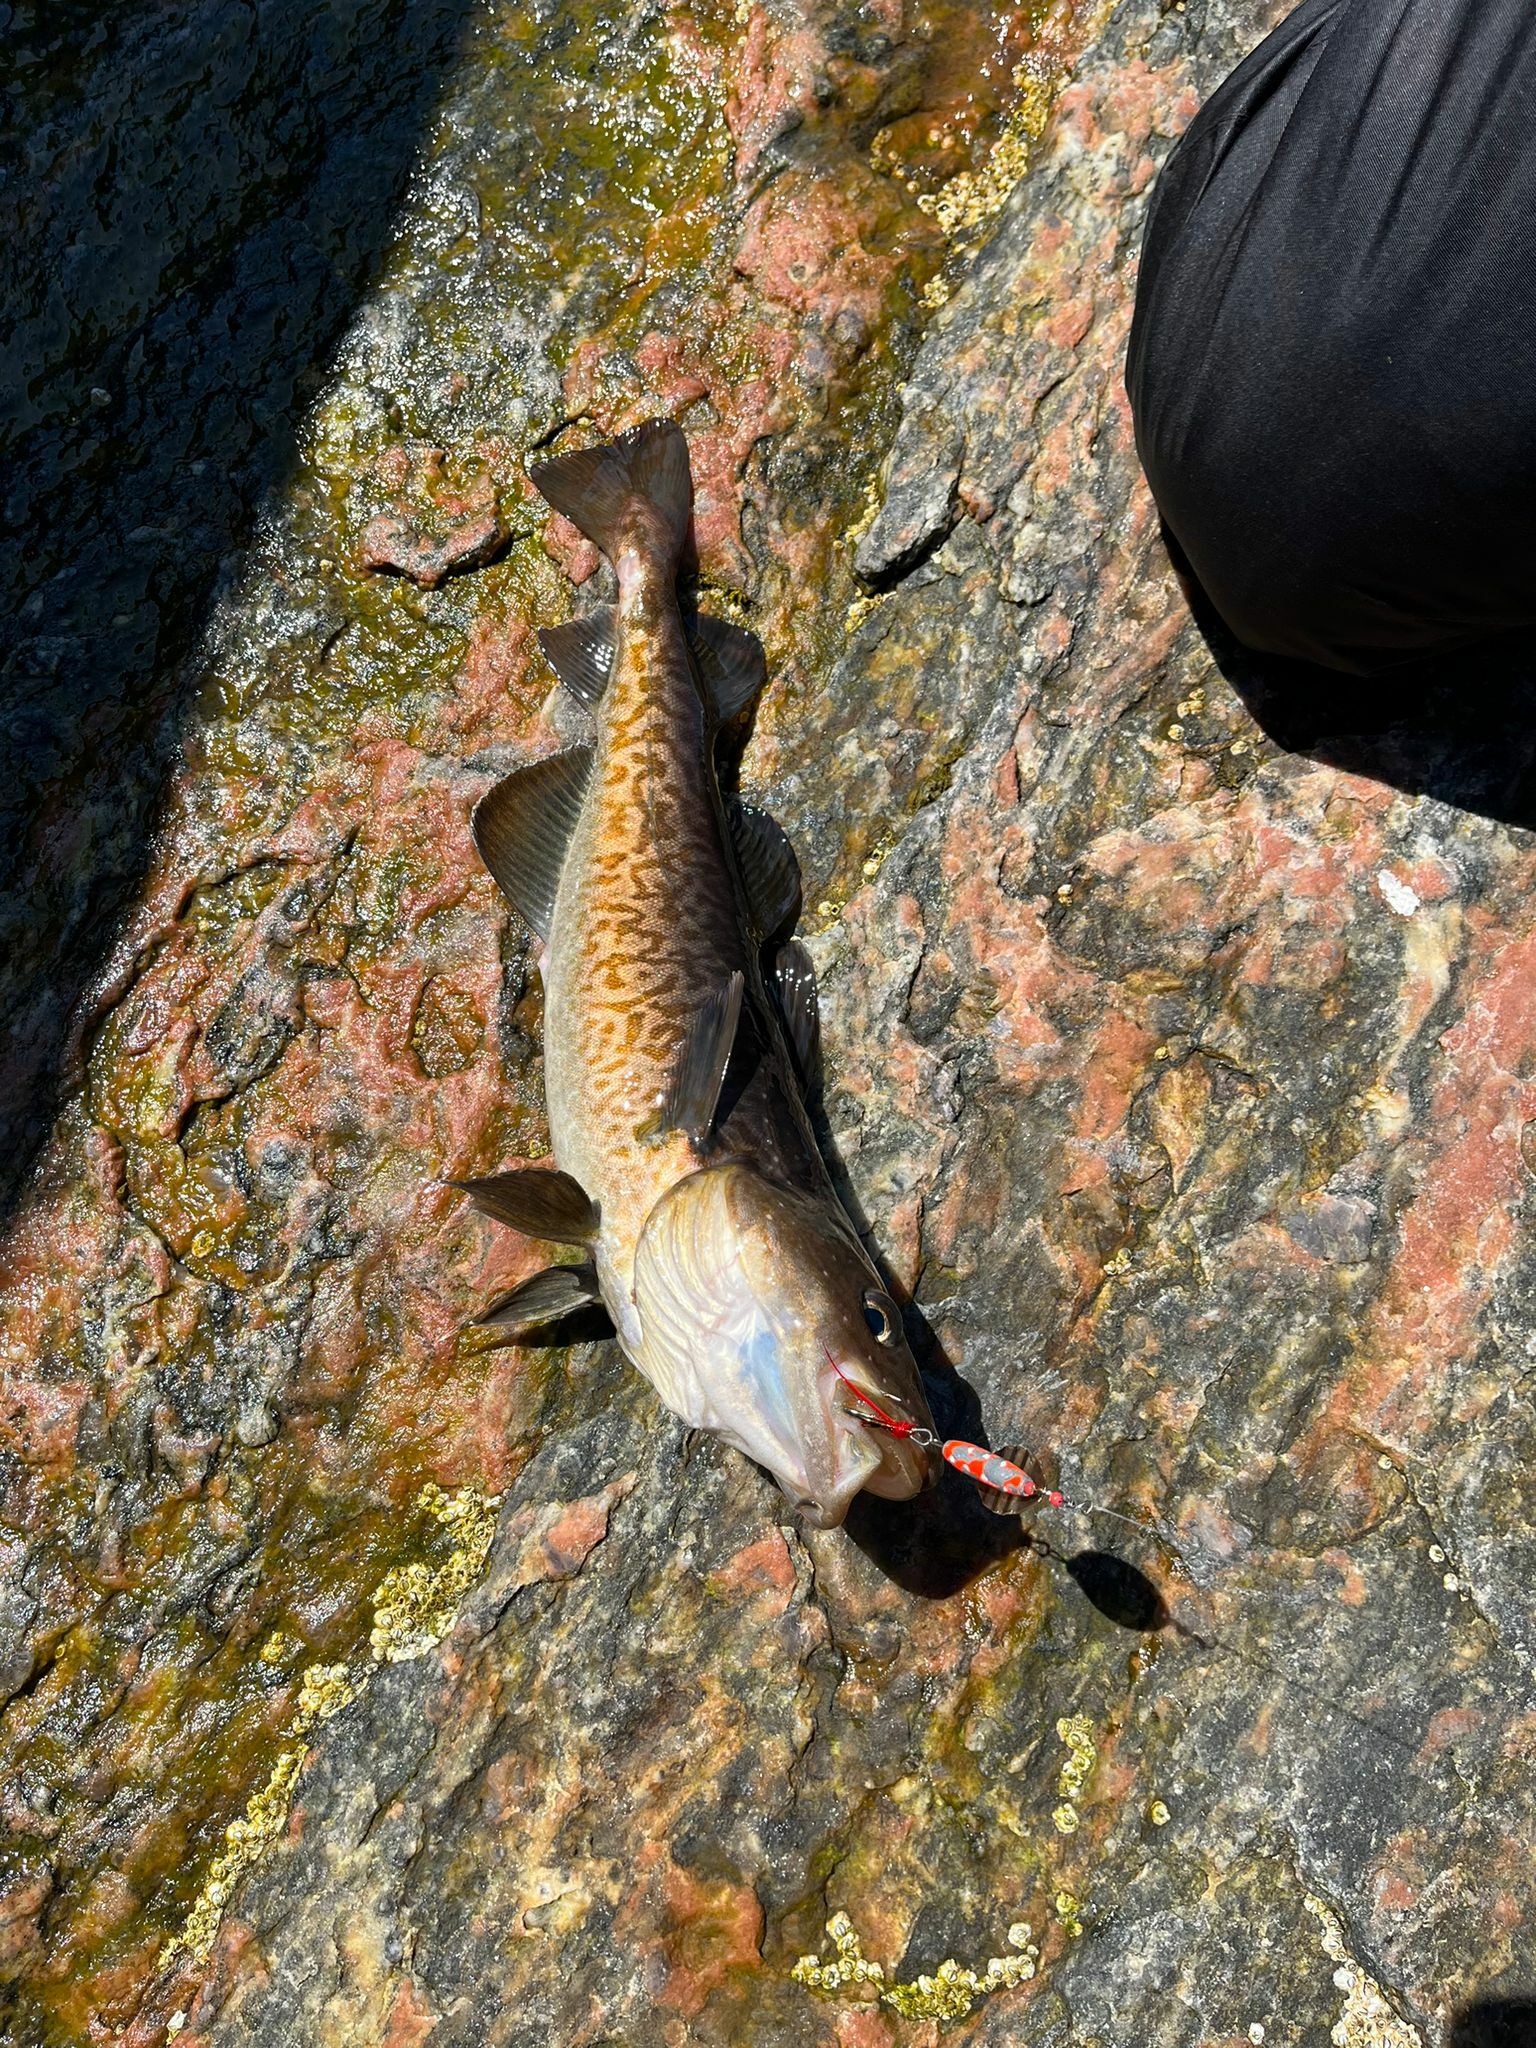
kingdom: Animalia
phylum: Chordata
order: Gadiformes
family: Gadidae
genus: Gadus
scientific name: Gadus macrocephalus
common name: Pacific cod
